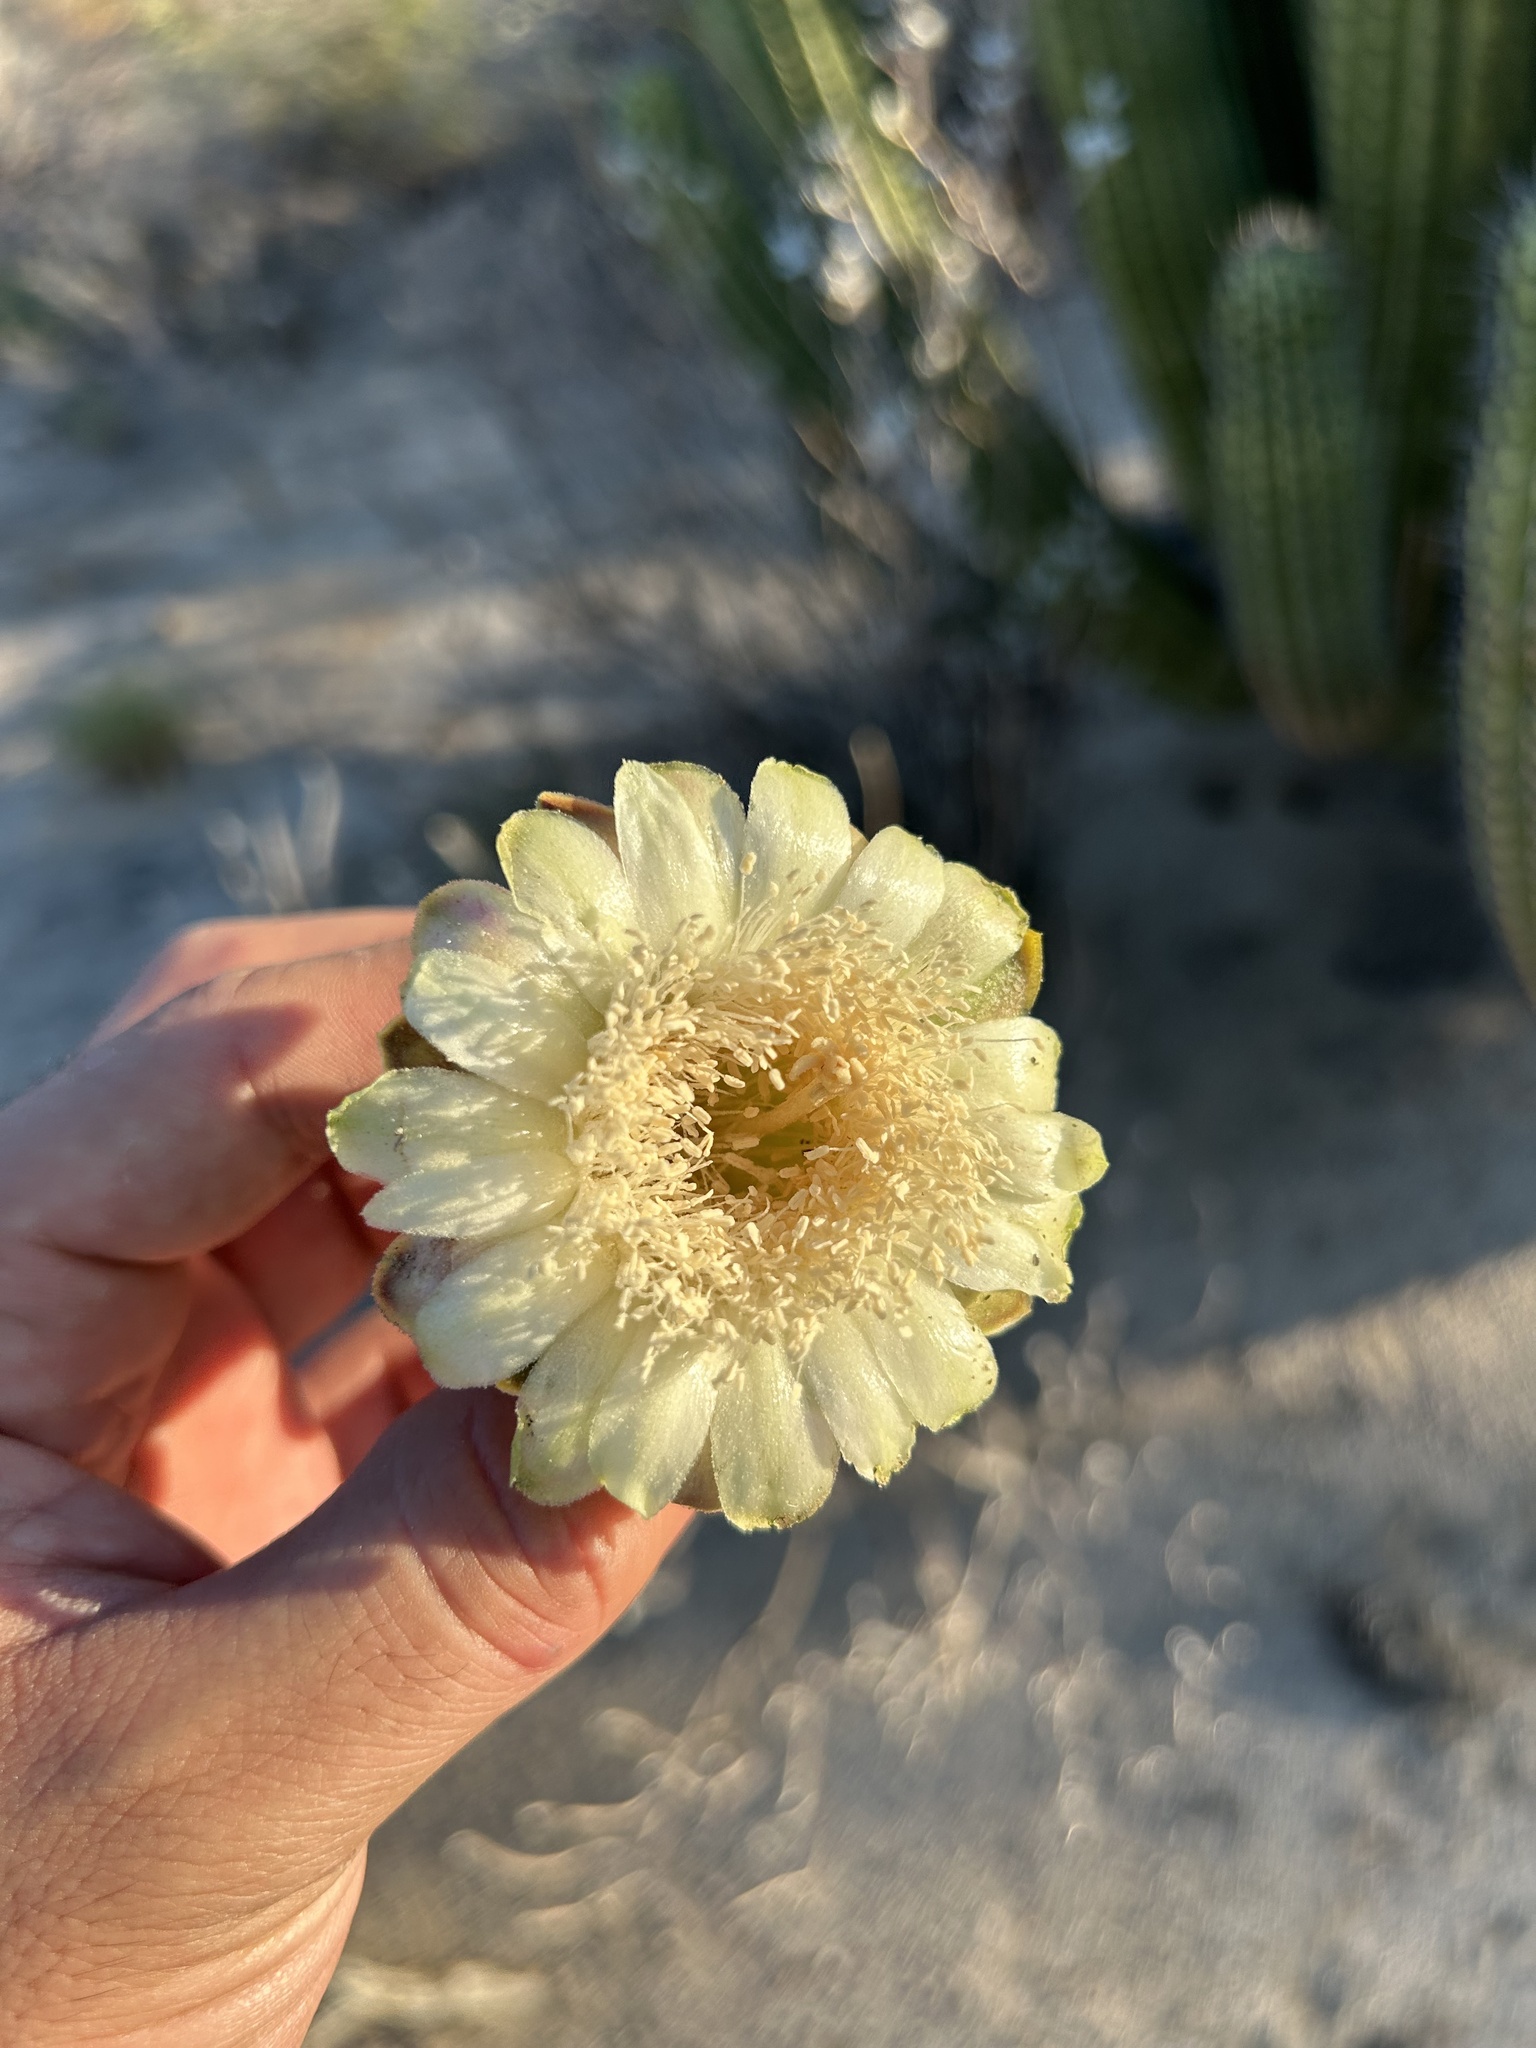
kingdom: Plantae
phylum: Tracheophyta
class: Magnoliopsida
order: Caryophyllales
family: Cactaceae
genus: Stenocereus
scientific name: Stenocereus thurberi
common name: Organ pipe cactus
